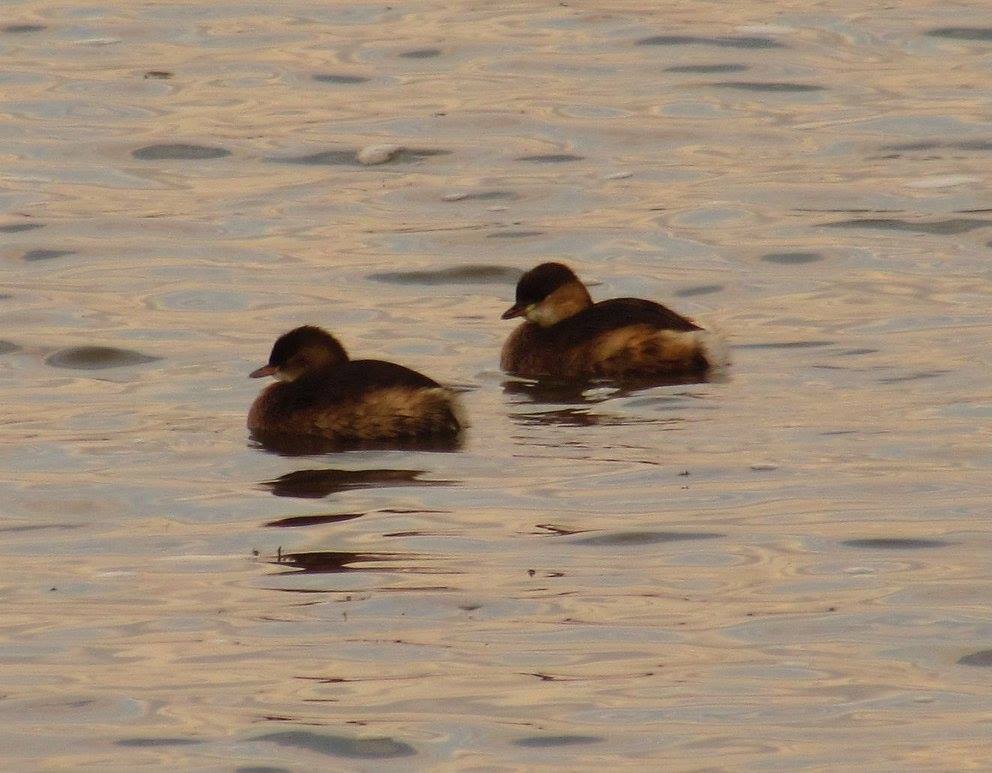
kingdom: Animalia
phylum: Chordata
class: Aves
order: Podicipediformes
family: Podicipedidae
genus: Tachybaptus
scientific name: Tachybaptus ruficollis
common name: Little grebe
